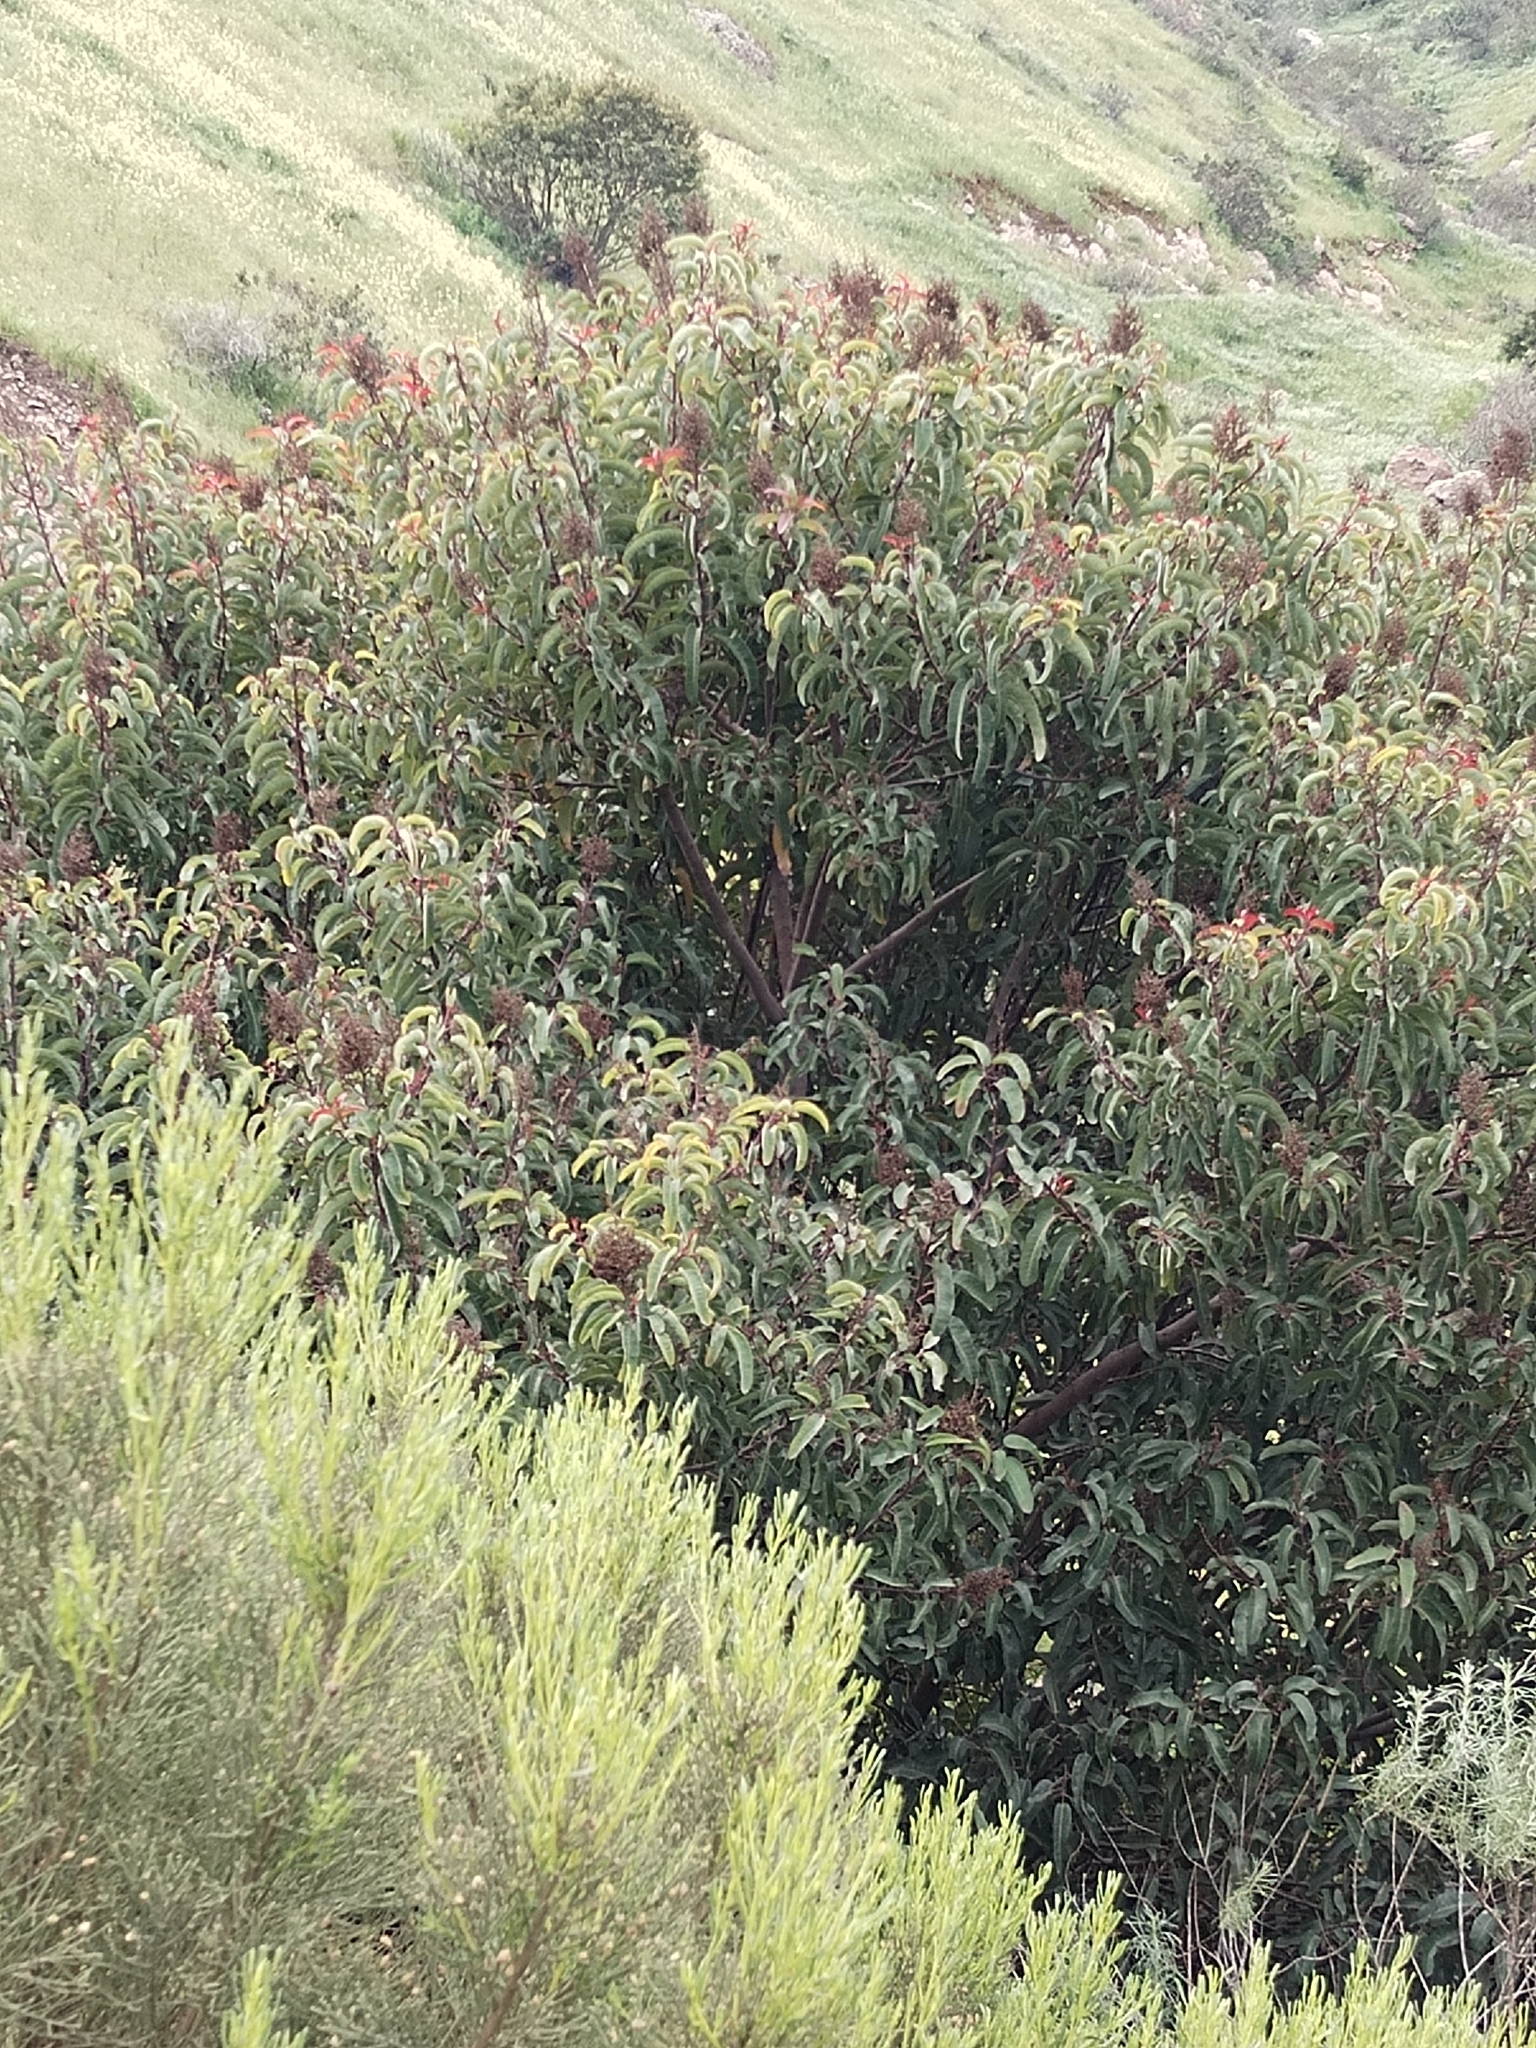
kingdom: Plantae
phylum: Tracheophyta
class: Magnoliopsida
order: Sapindales
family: Anacardiaceae
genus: Malosma
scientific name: Malosma laurina
